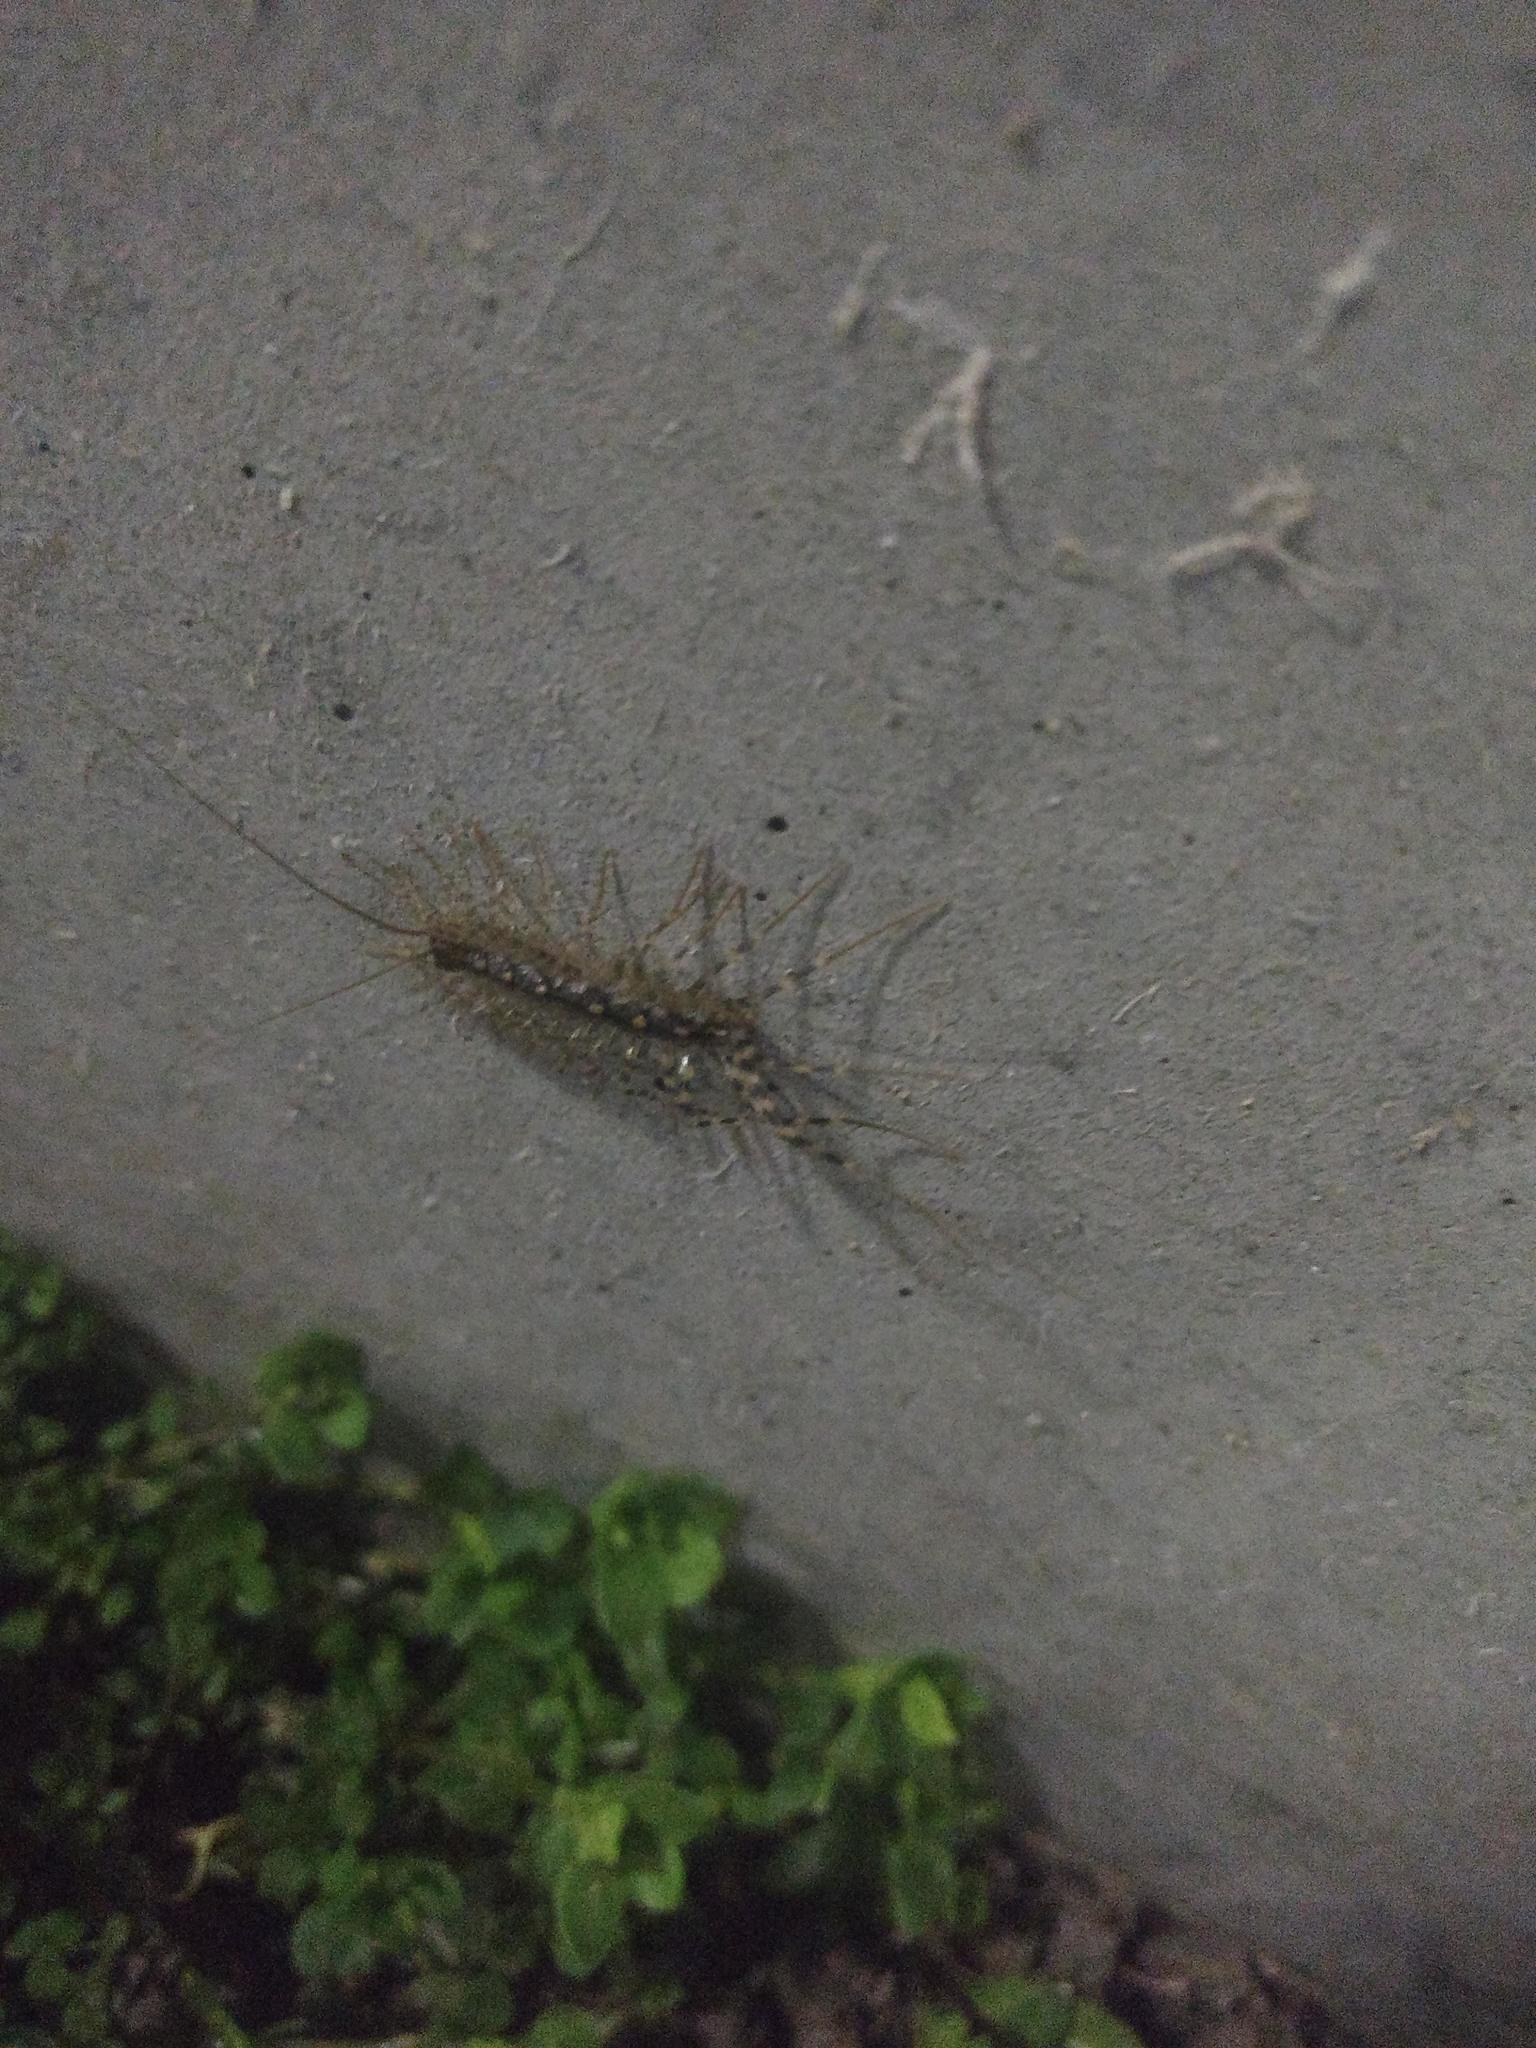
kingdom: Animalia
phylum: Arthropoda
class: Chilopoda
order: Scutigeromorpha
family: Scutigeridae
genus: Scutigera
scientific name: Scutigera coleoptrata
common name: House centipede
